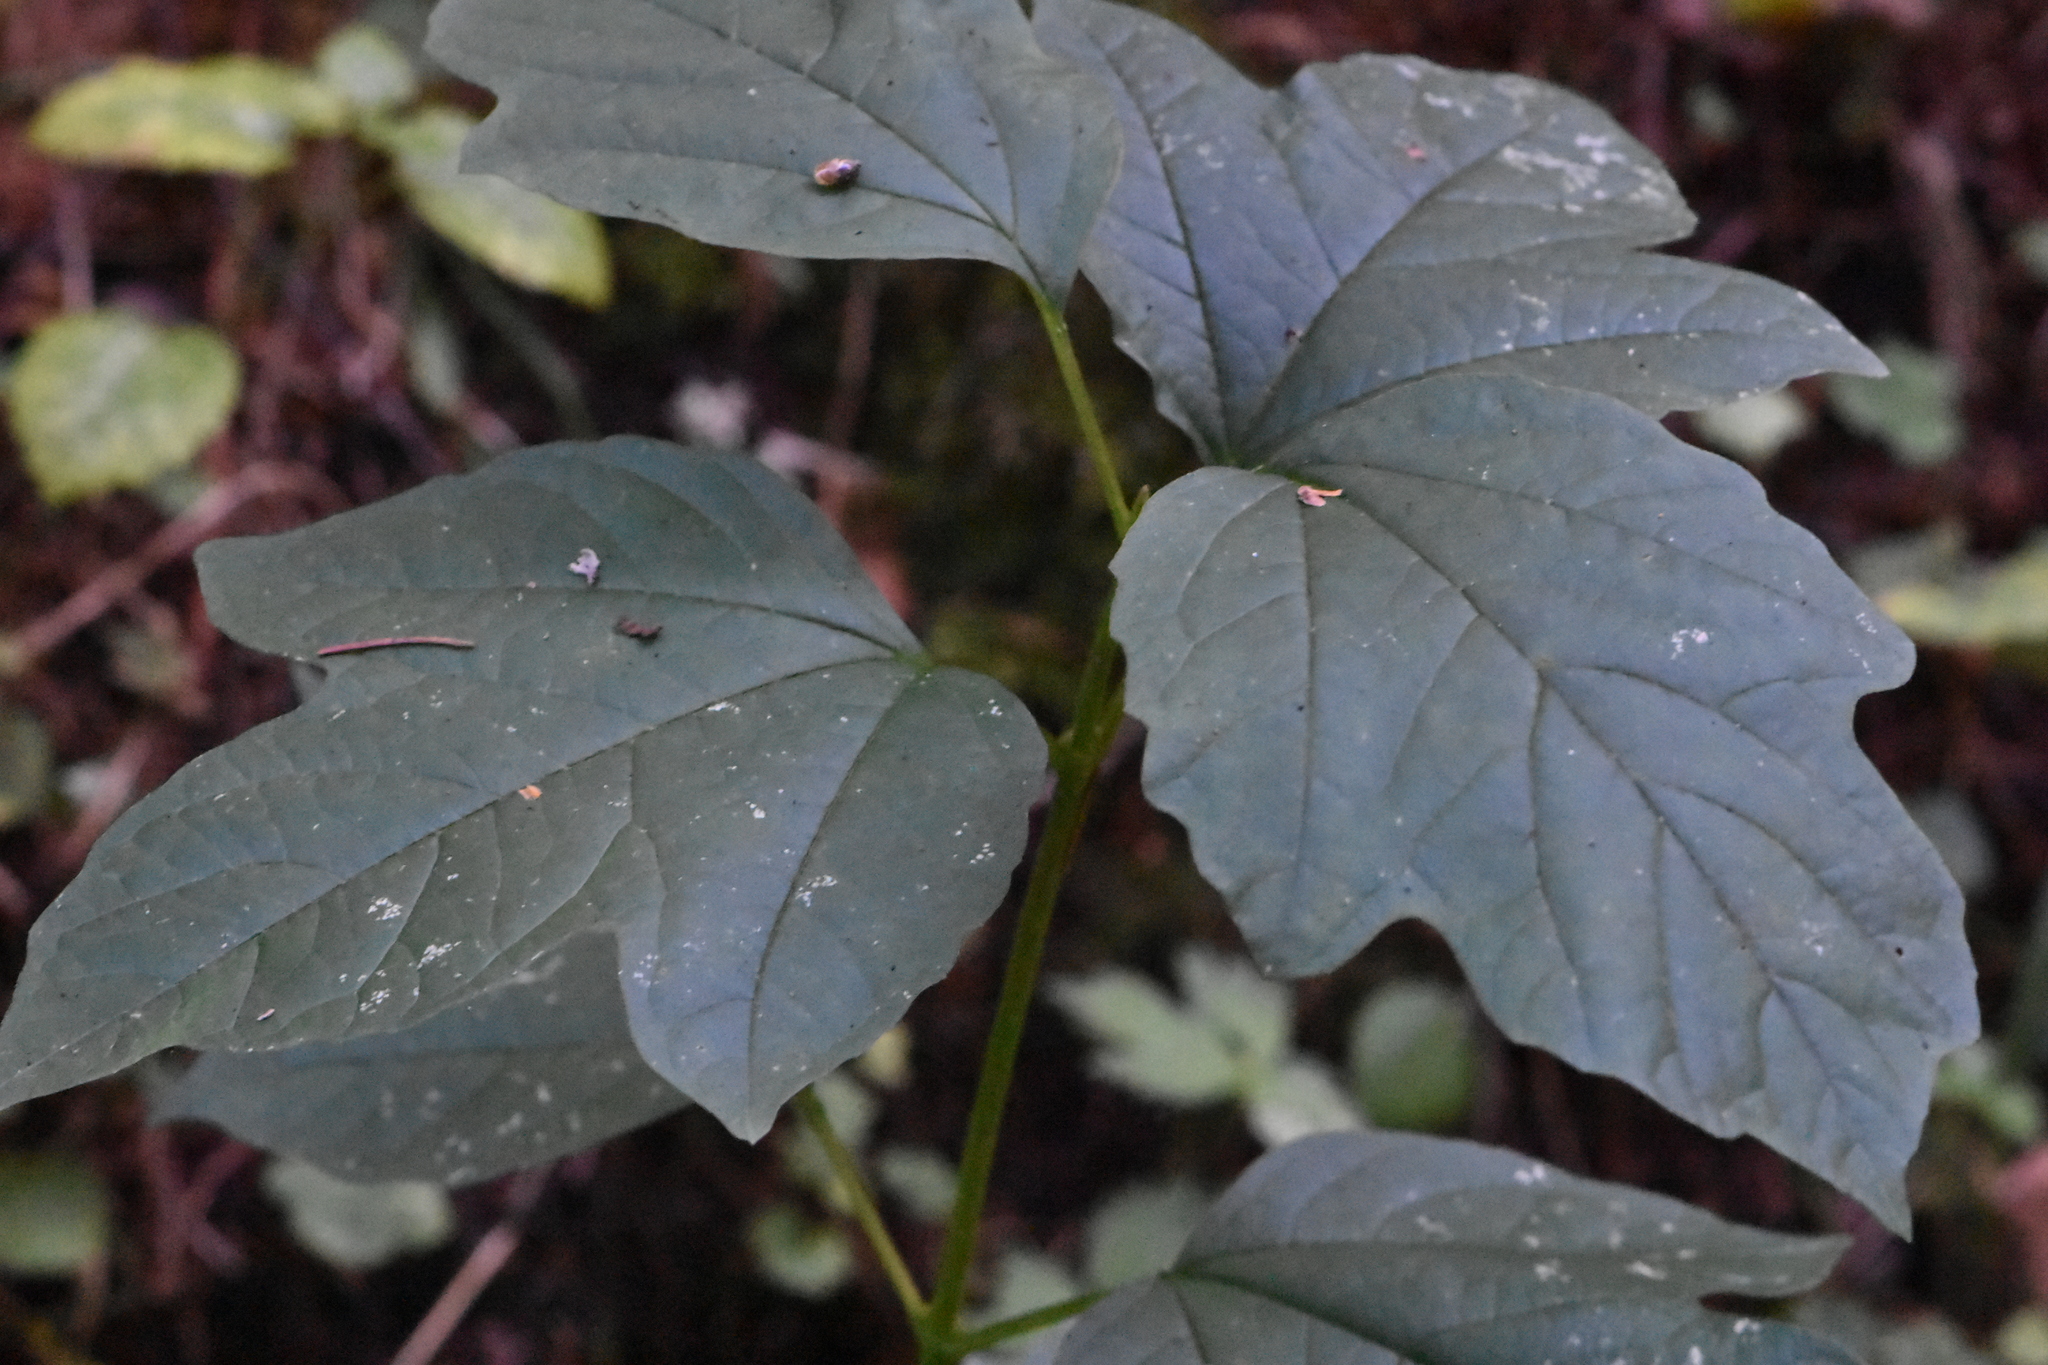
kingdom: Plantae
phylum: Tracheophyta
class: Magnoliopsida
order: Dipsacales
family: Viburnaceae
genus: Viburnum
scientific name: Viburnum opulus
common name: Guelder-rose
